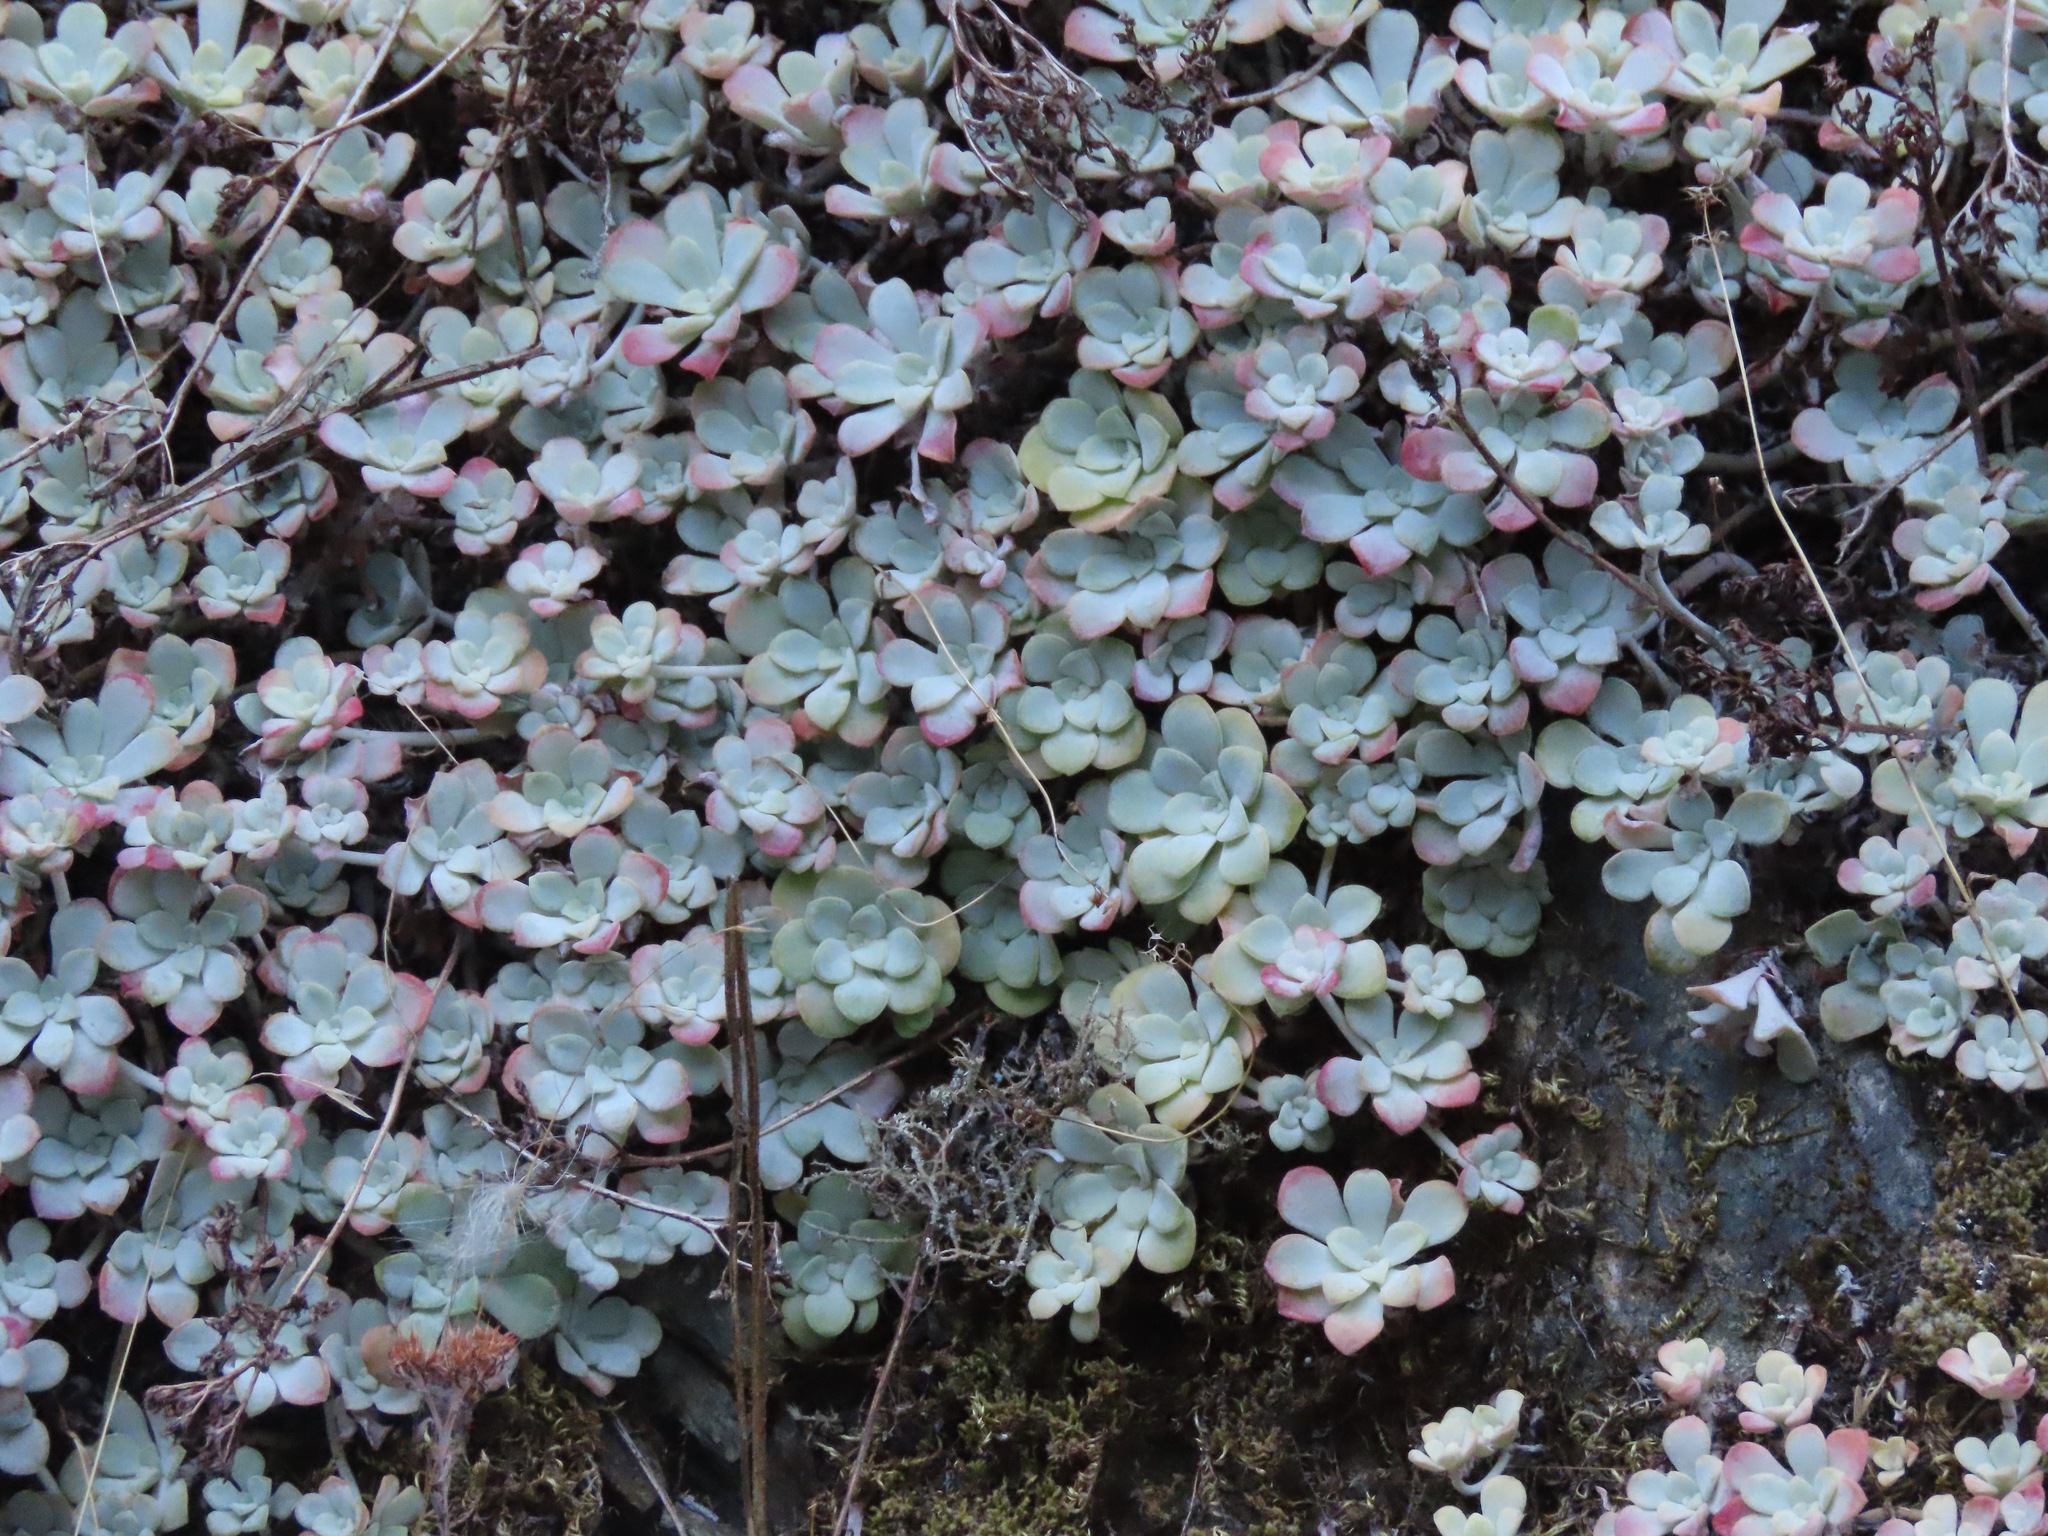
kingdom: Plantae
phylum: Tracheophyta
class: Magnoliopsida
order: Saxifragales
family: Crassulaceae
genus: Sedum
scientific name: Sedum spathulifolium
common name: Colorado stonecrop
